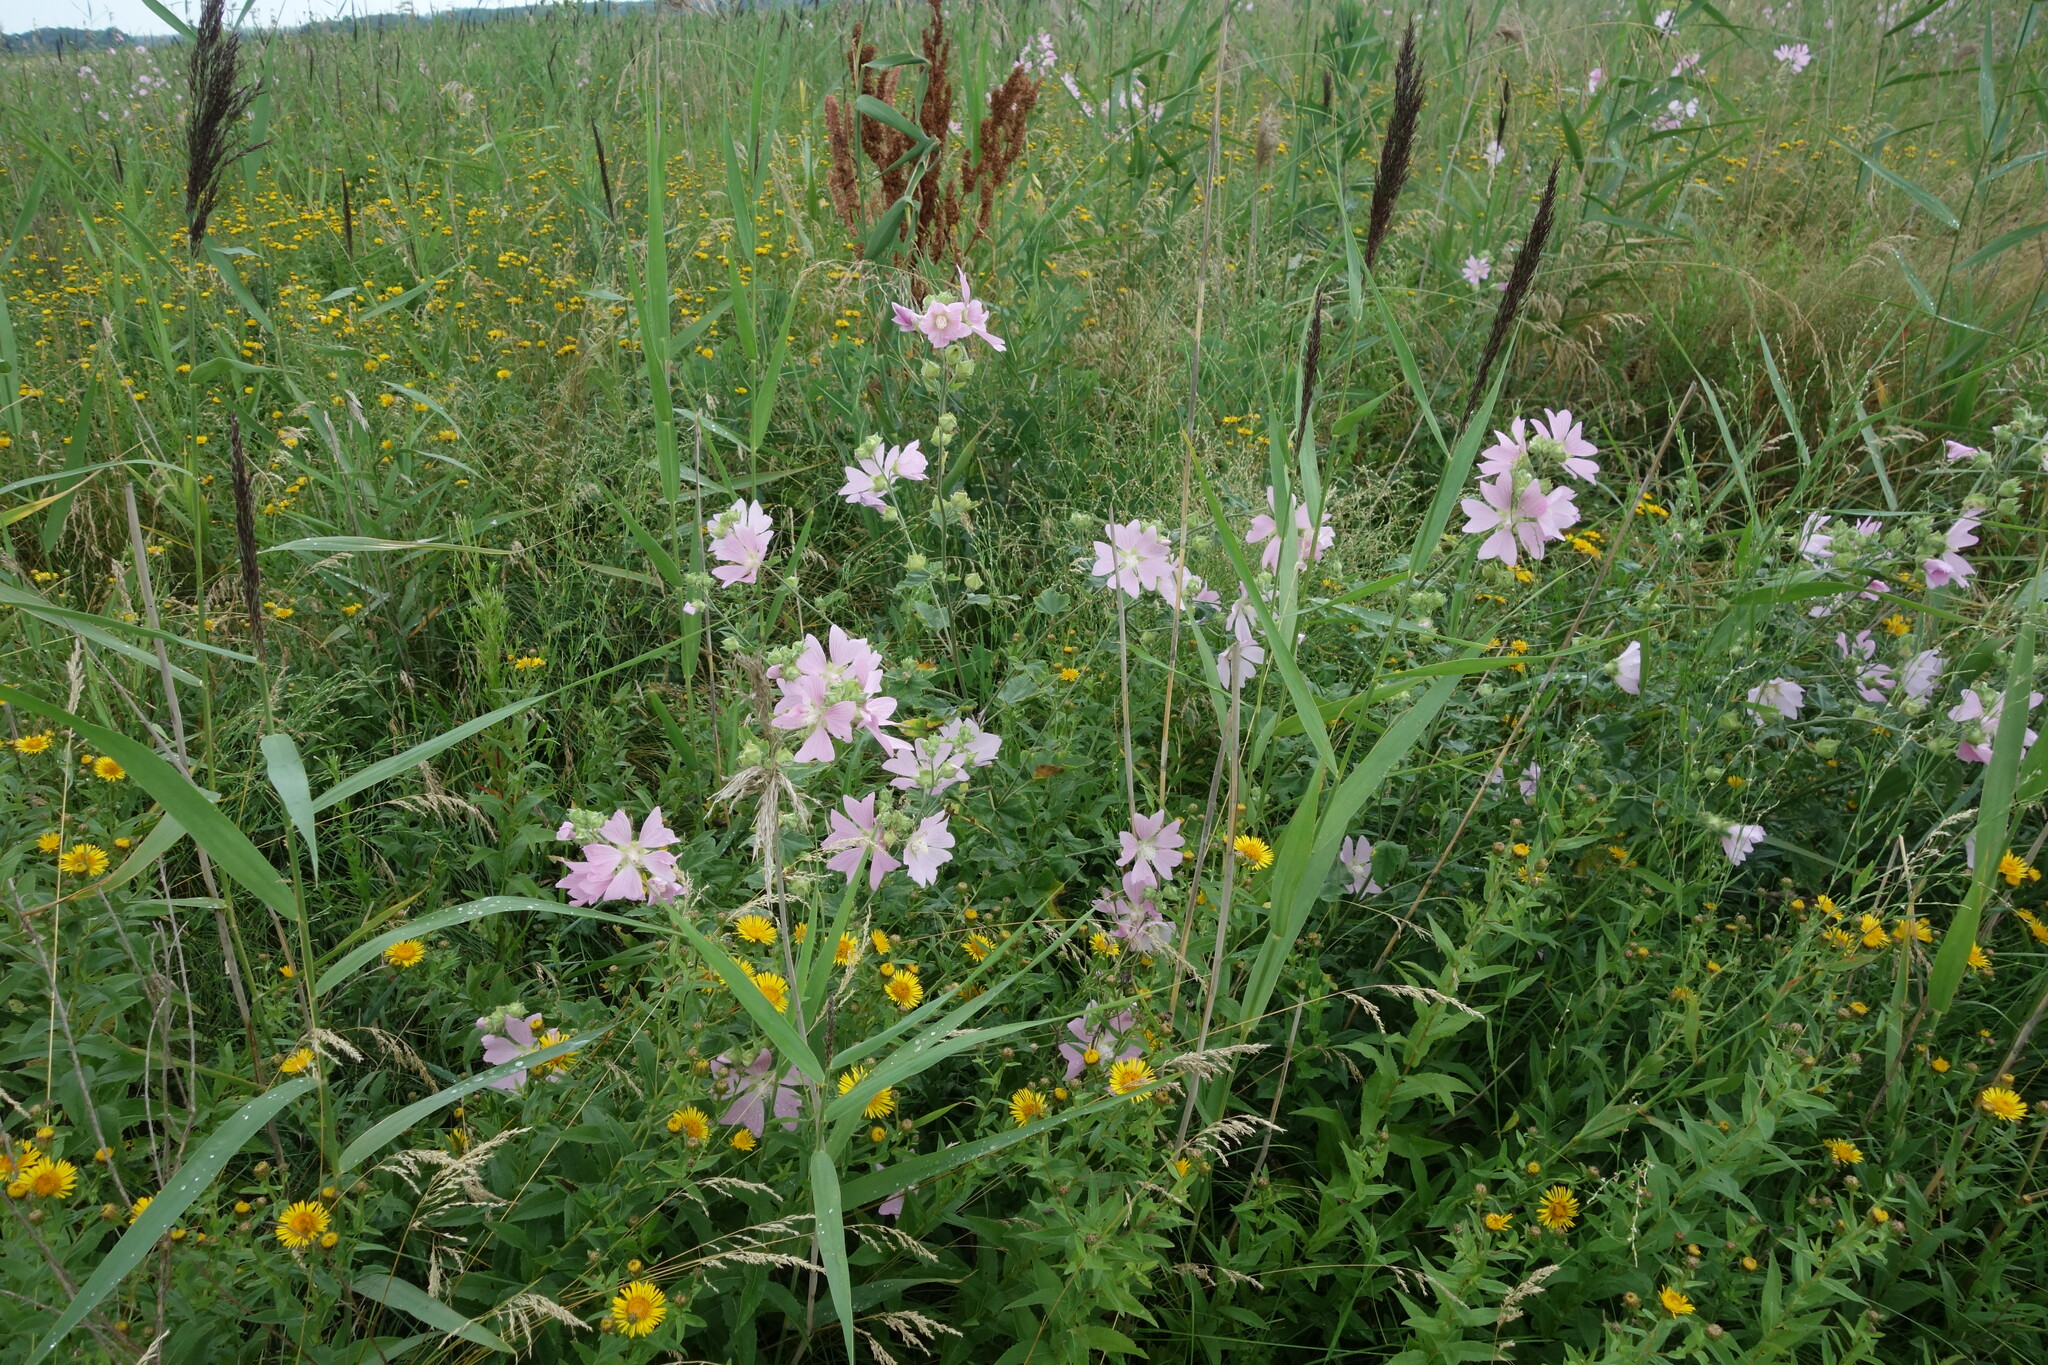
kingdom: Plantae
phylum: Tracheophyta
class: Magnoliopsida
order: Malvales
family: Malvaceae
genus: Malva
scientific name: Malva thuringiaca
